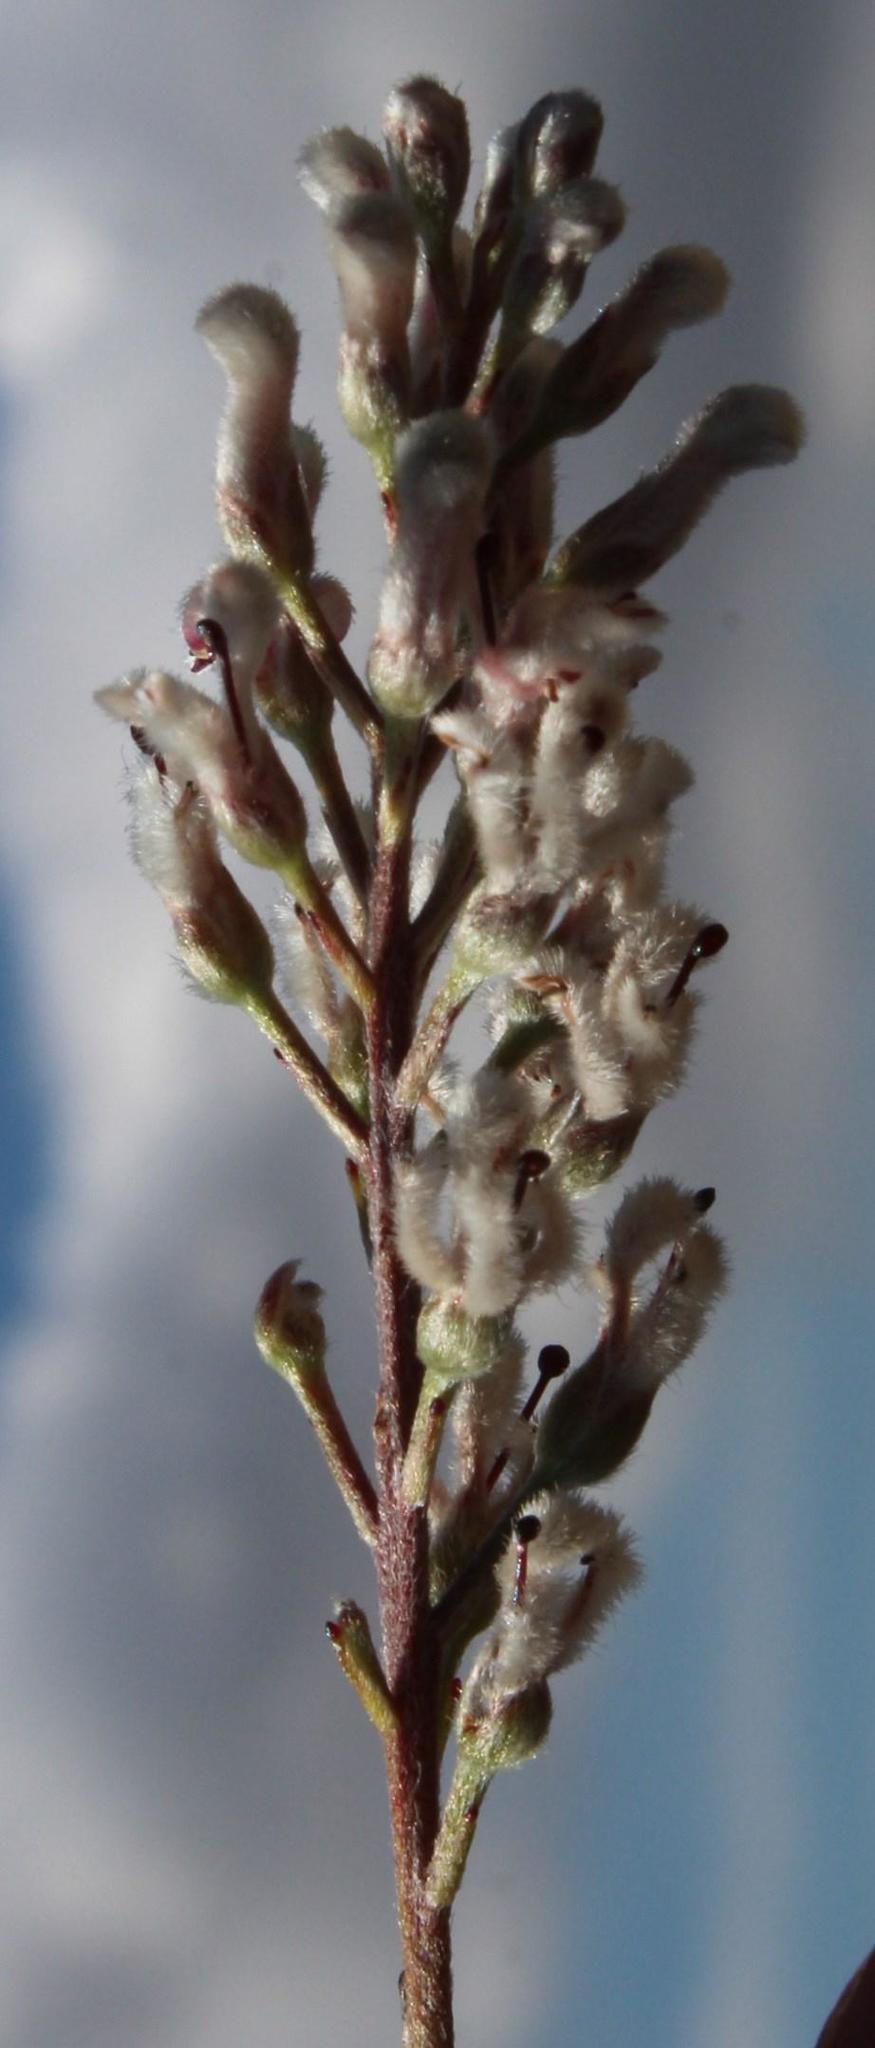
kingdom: Plantae
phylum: Tracheophyta
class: Magnoliopsida
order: Proteales
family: Proteaceae
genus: Spatalla
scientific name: Spatalla racemosa
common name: Lax-stalked spoon
